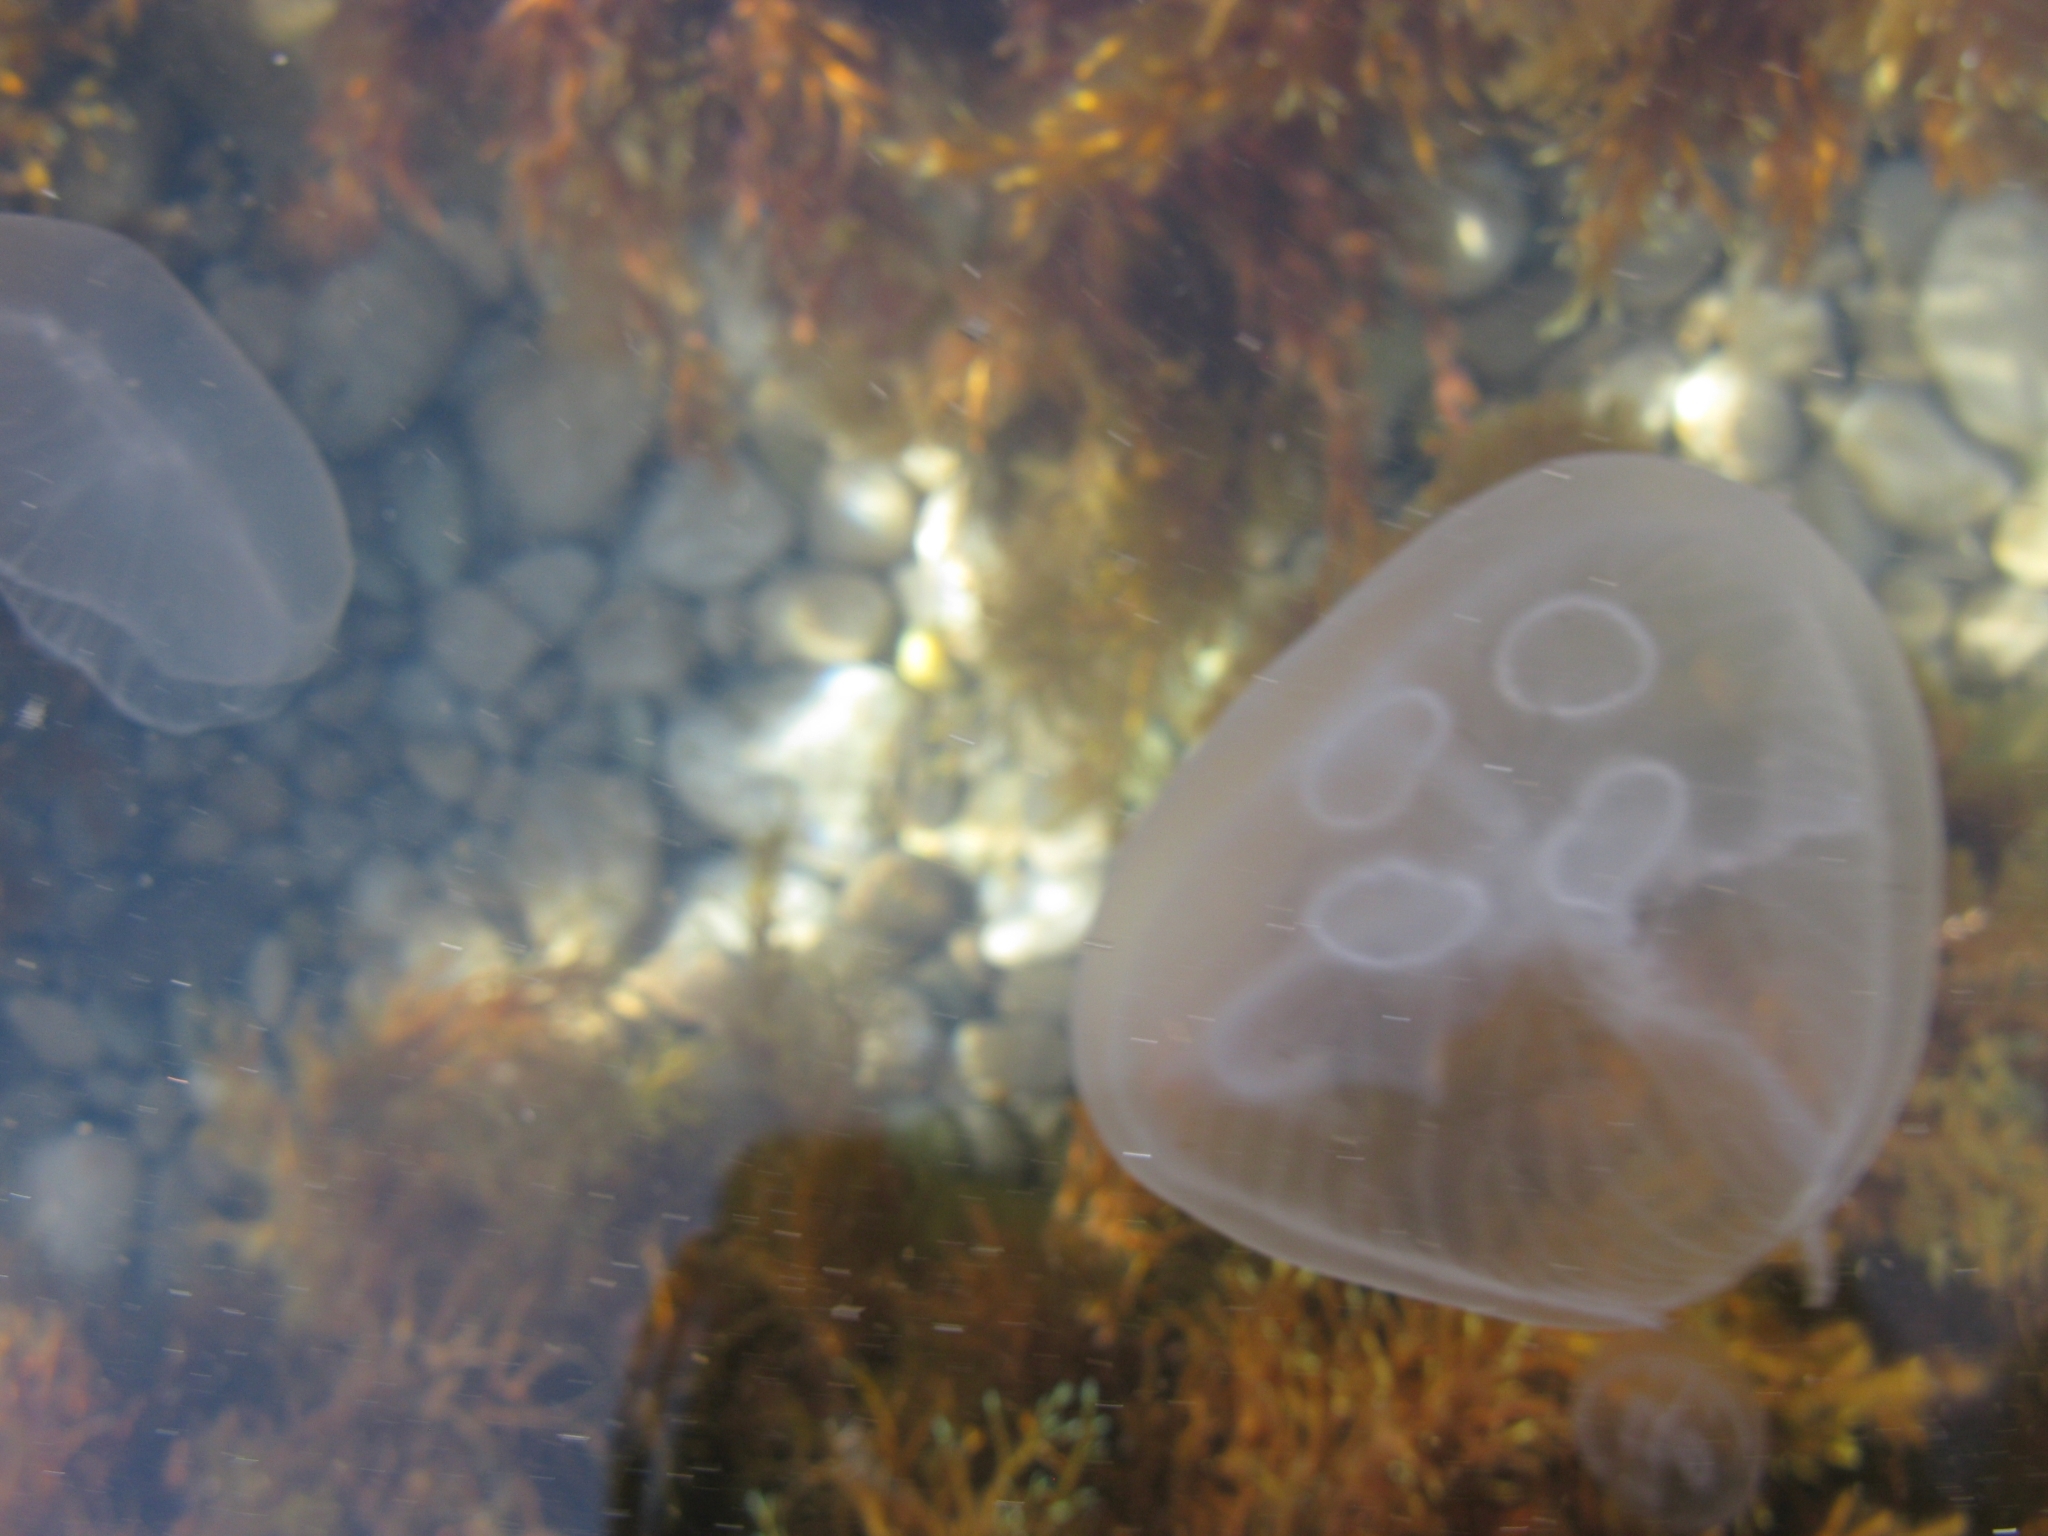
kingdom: Animalia
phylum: Cnidaria
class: Scyphozoa
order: Semaeostomeae
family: Ulmaridae
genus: Aurelia
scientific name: Aurelia aurita
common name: Moon jellyfish
